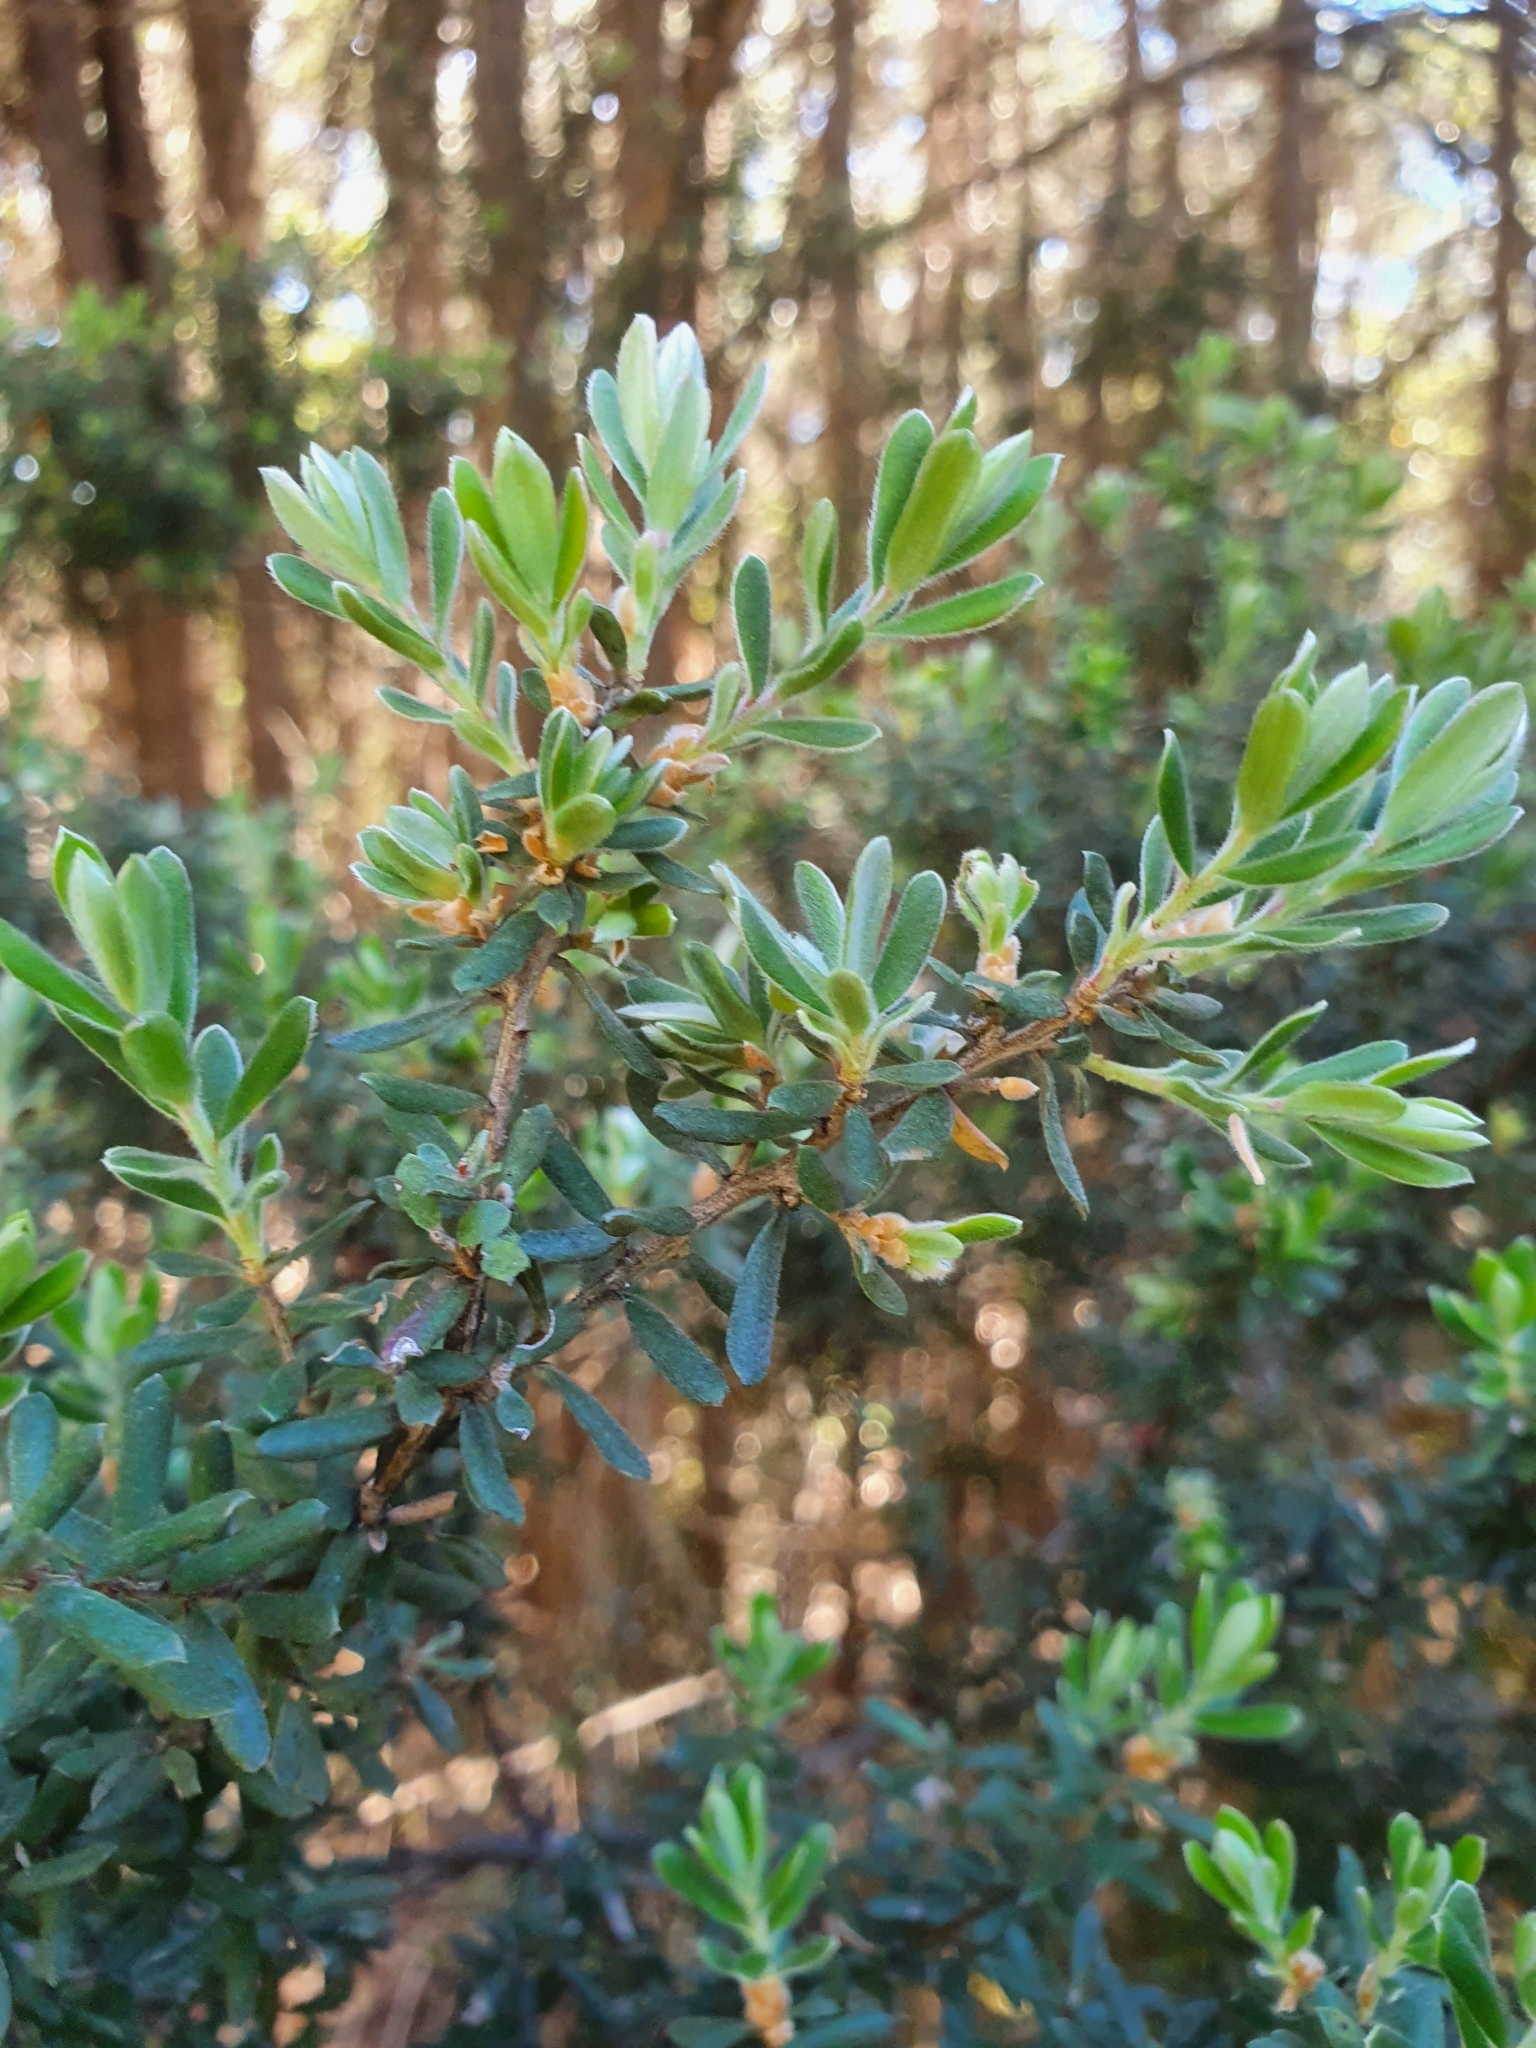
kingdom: Plantae
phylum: Tracheophyta
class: Magnoliopsida
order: Myrtales
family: Myrtaceae
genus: Leptospermum
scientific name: Leptospermum lanigerum
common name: Woolly tea-tree
